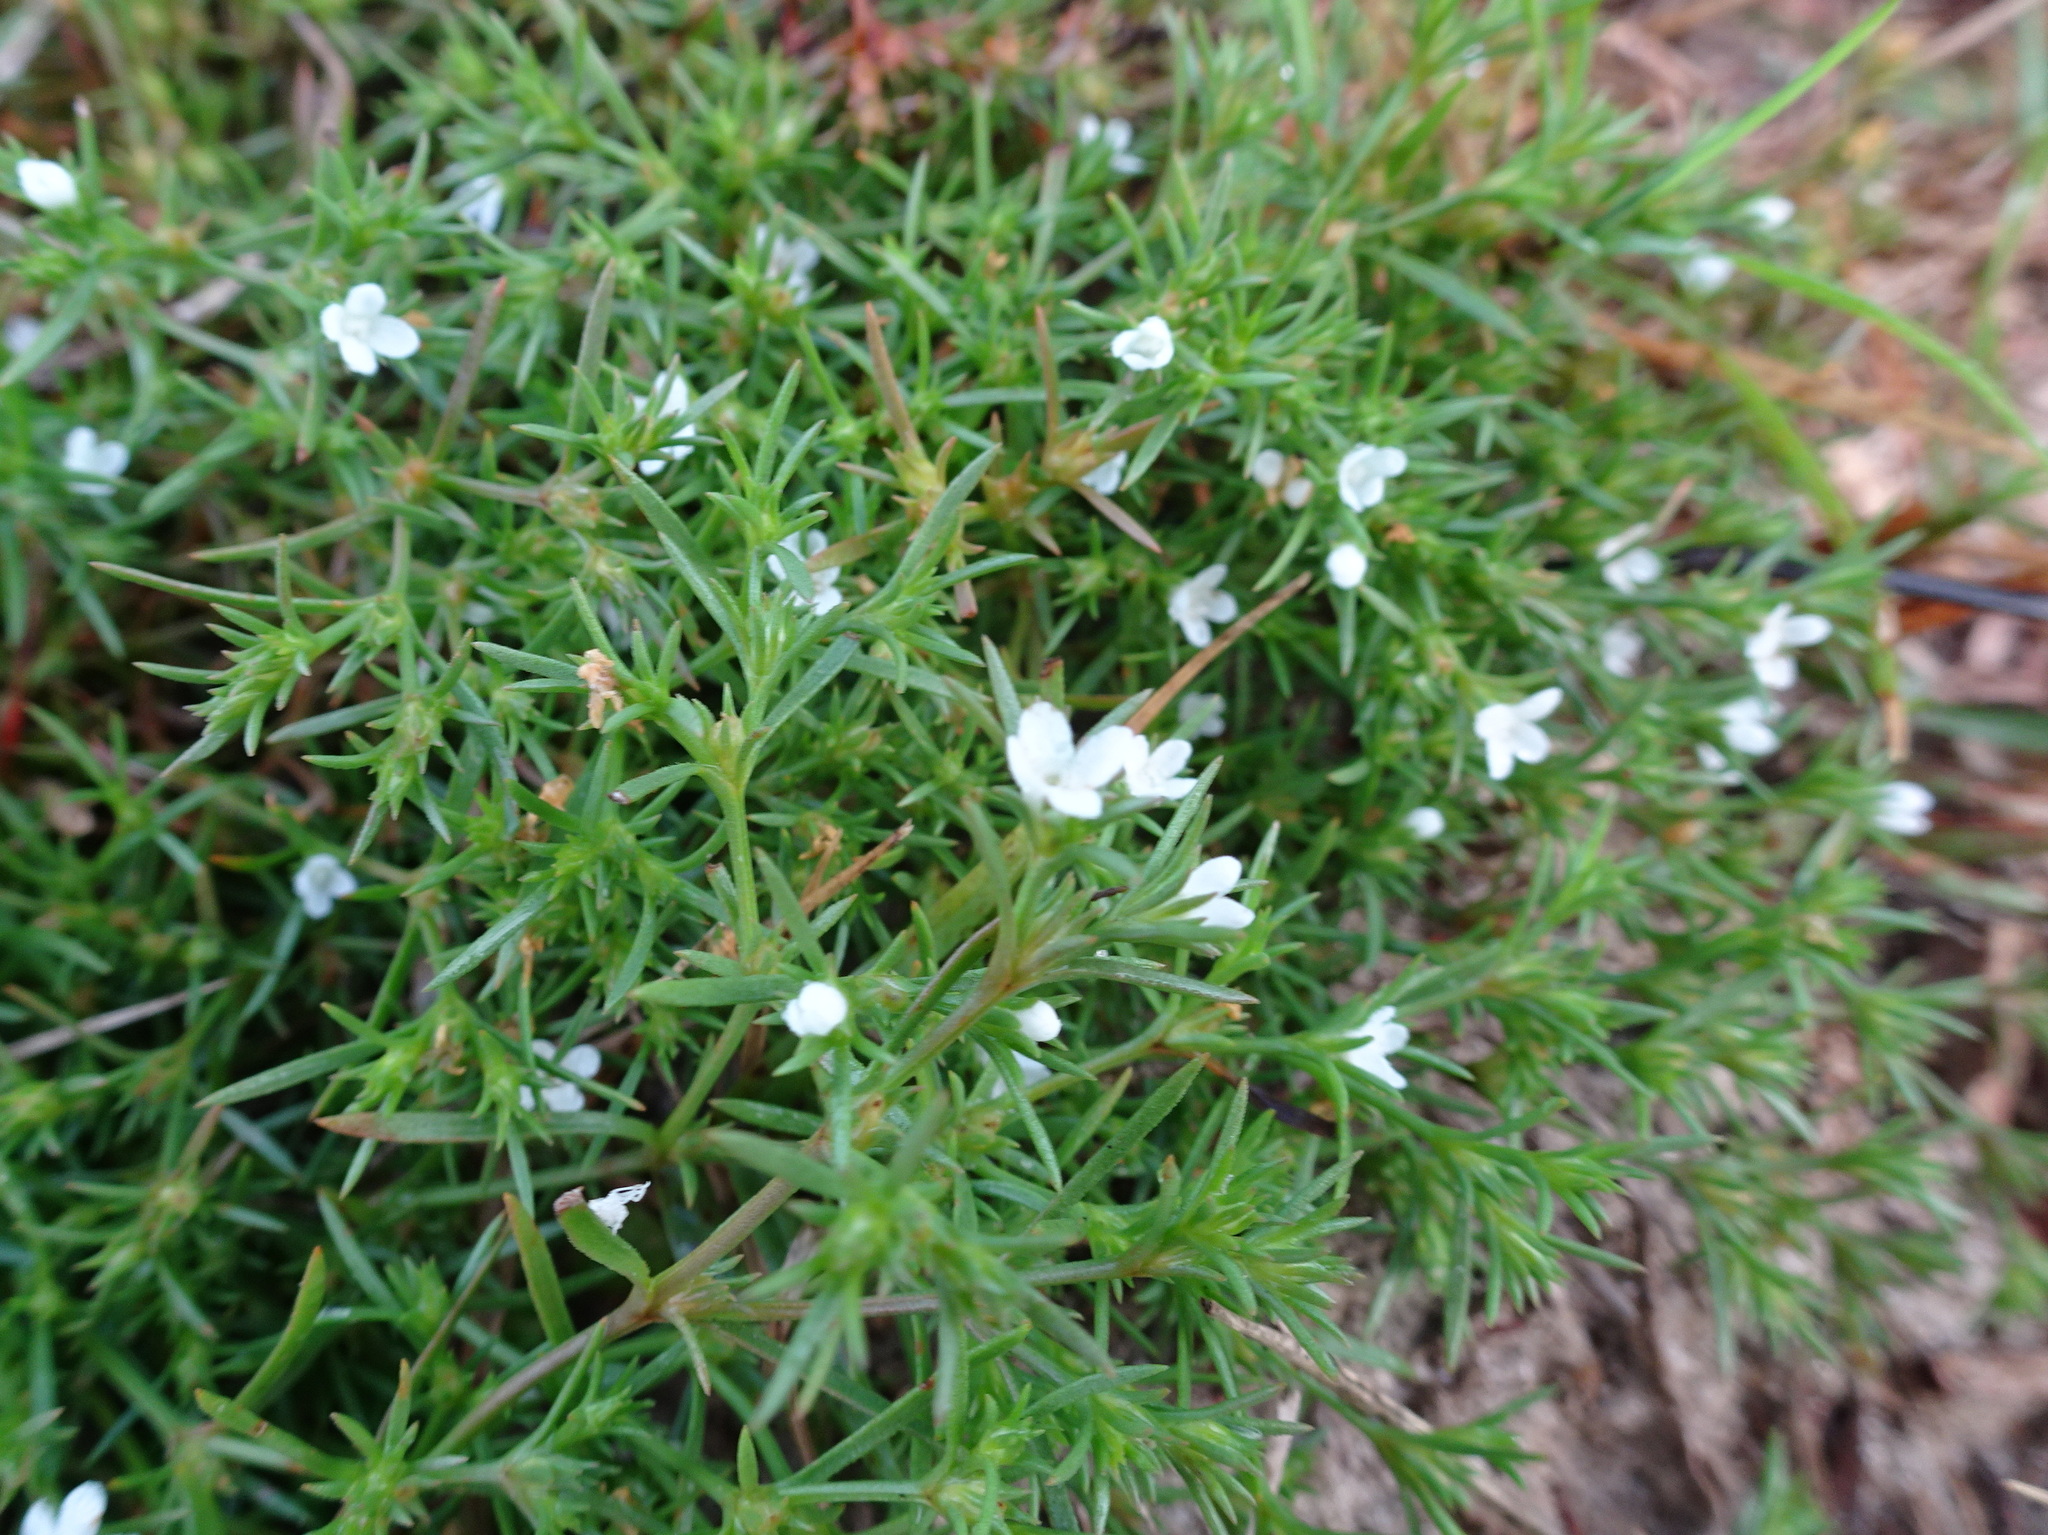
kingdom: Plantae
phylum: Tracheophyta
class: Magnoliopsida
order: Lamiales
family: Tetrachondraceae
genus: Polypremum
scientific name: Polypremum procumbens
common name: Juniper-leaf
